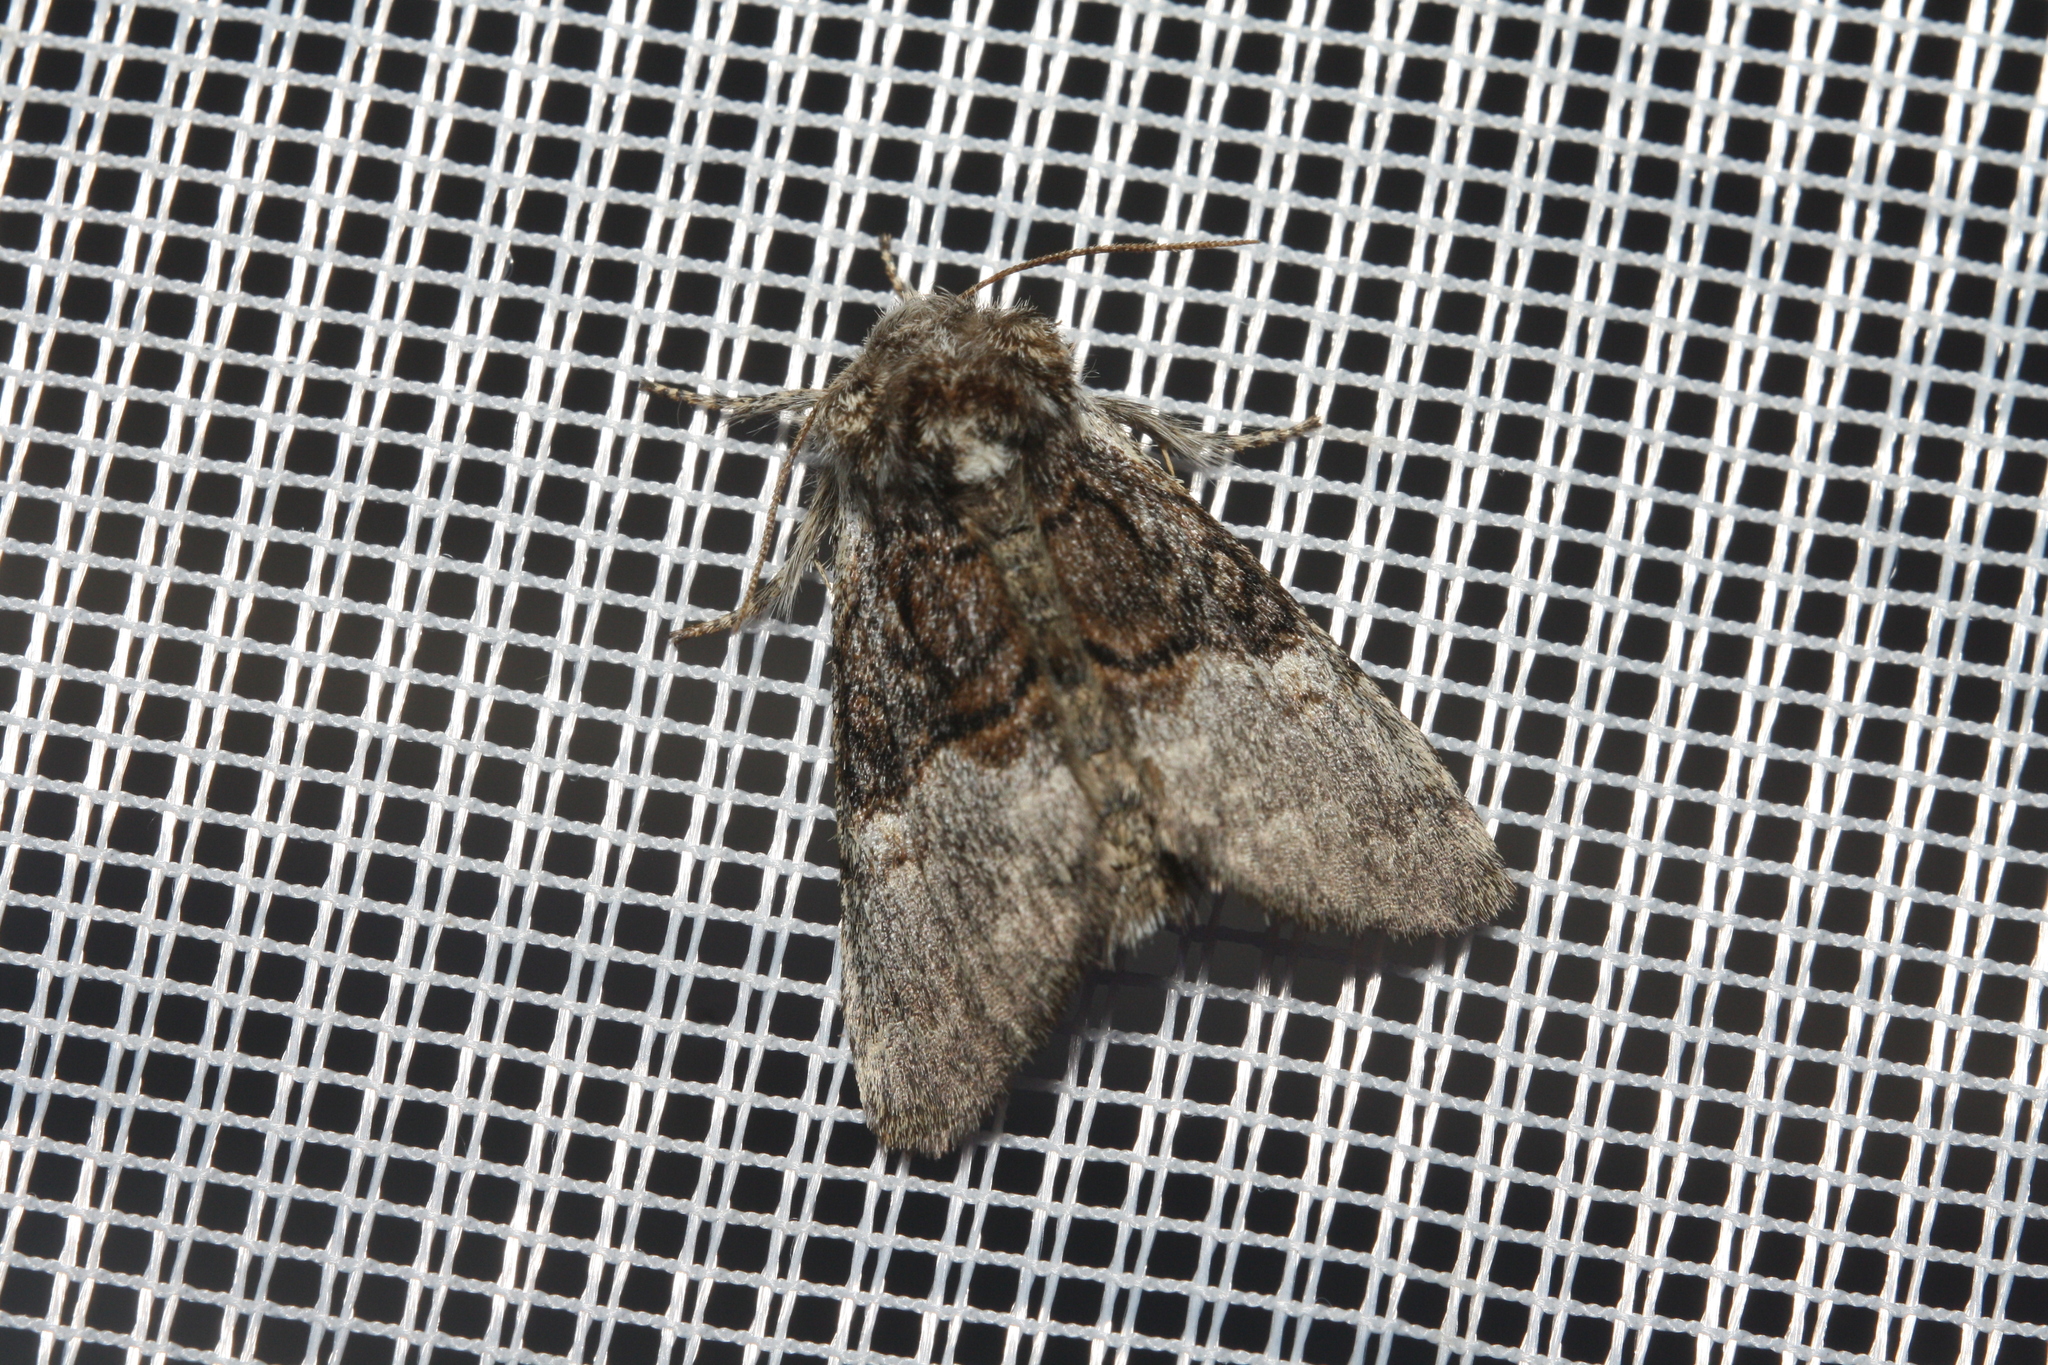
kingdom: Animalia
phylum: Arthropoda
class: Insecta
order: Lepidoptera
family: Noctuidae
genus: Colocasia
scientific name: Colocasia coryli
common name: Nut-tree tussock
